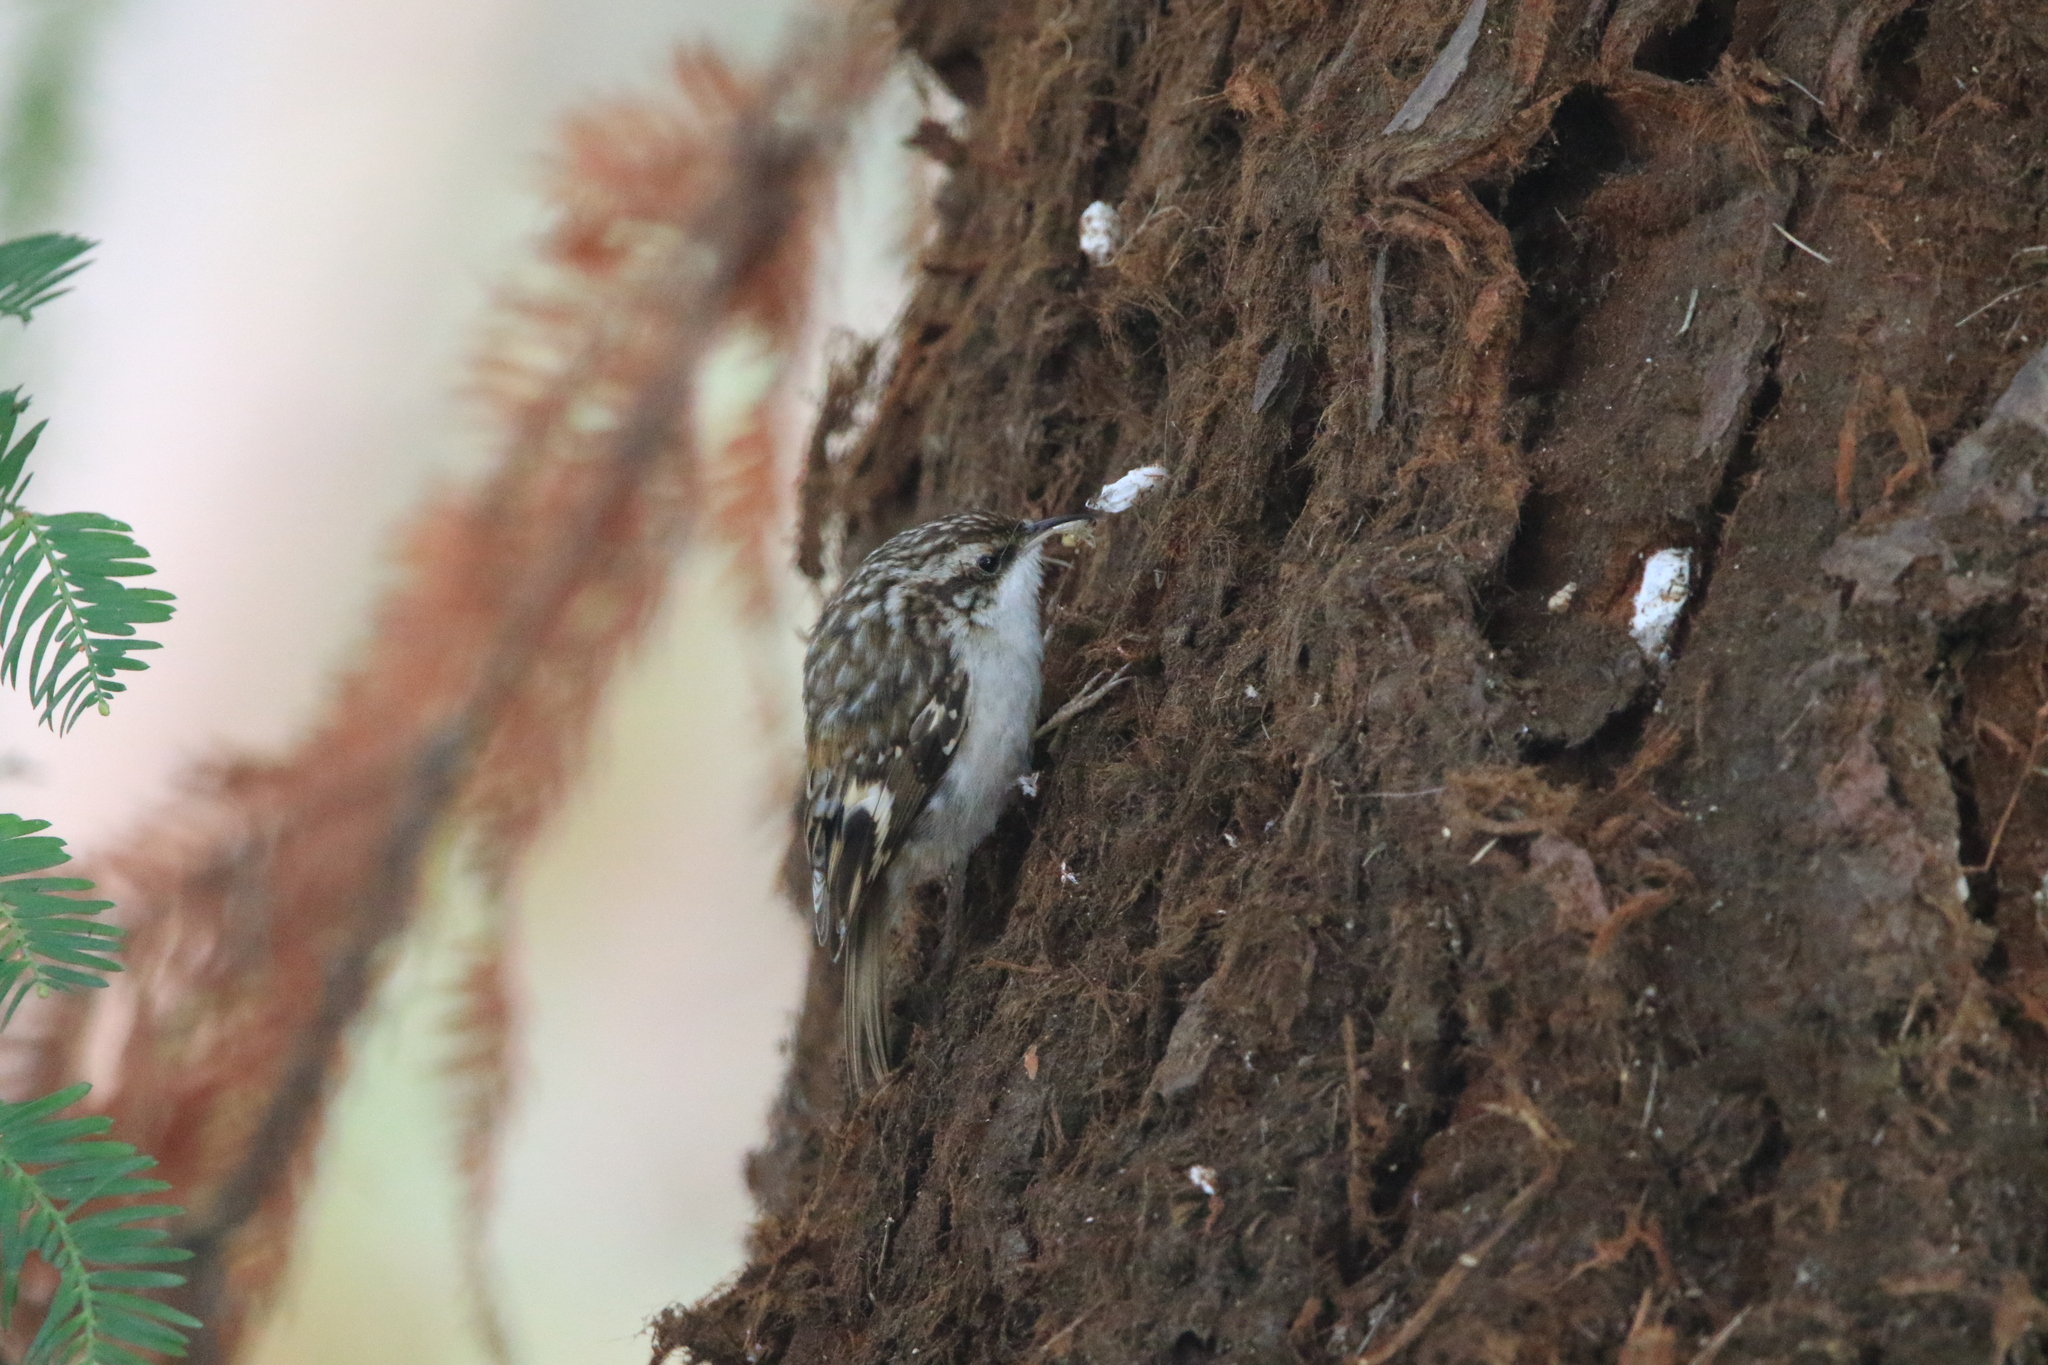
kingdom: Animalia
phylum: Chordata
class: Aves
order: Passeriformes
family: Certhiidae
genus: Certhia
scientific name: Certhia americana
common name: Brown creeper
